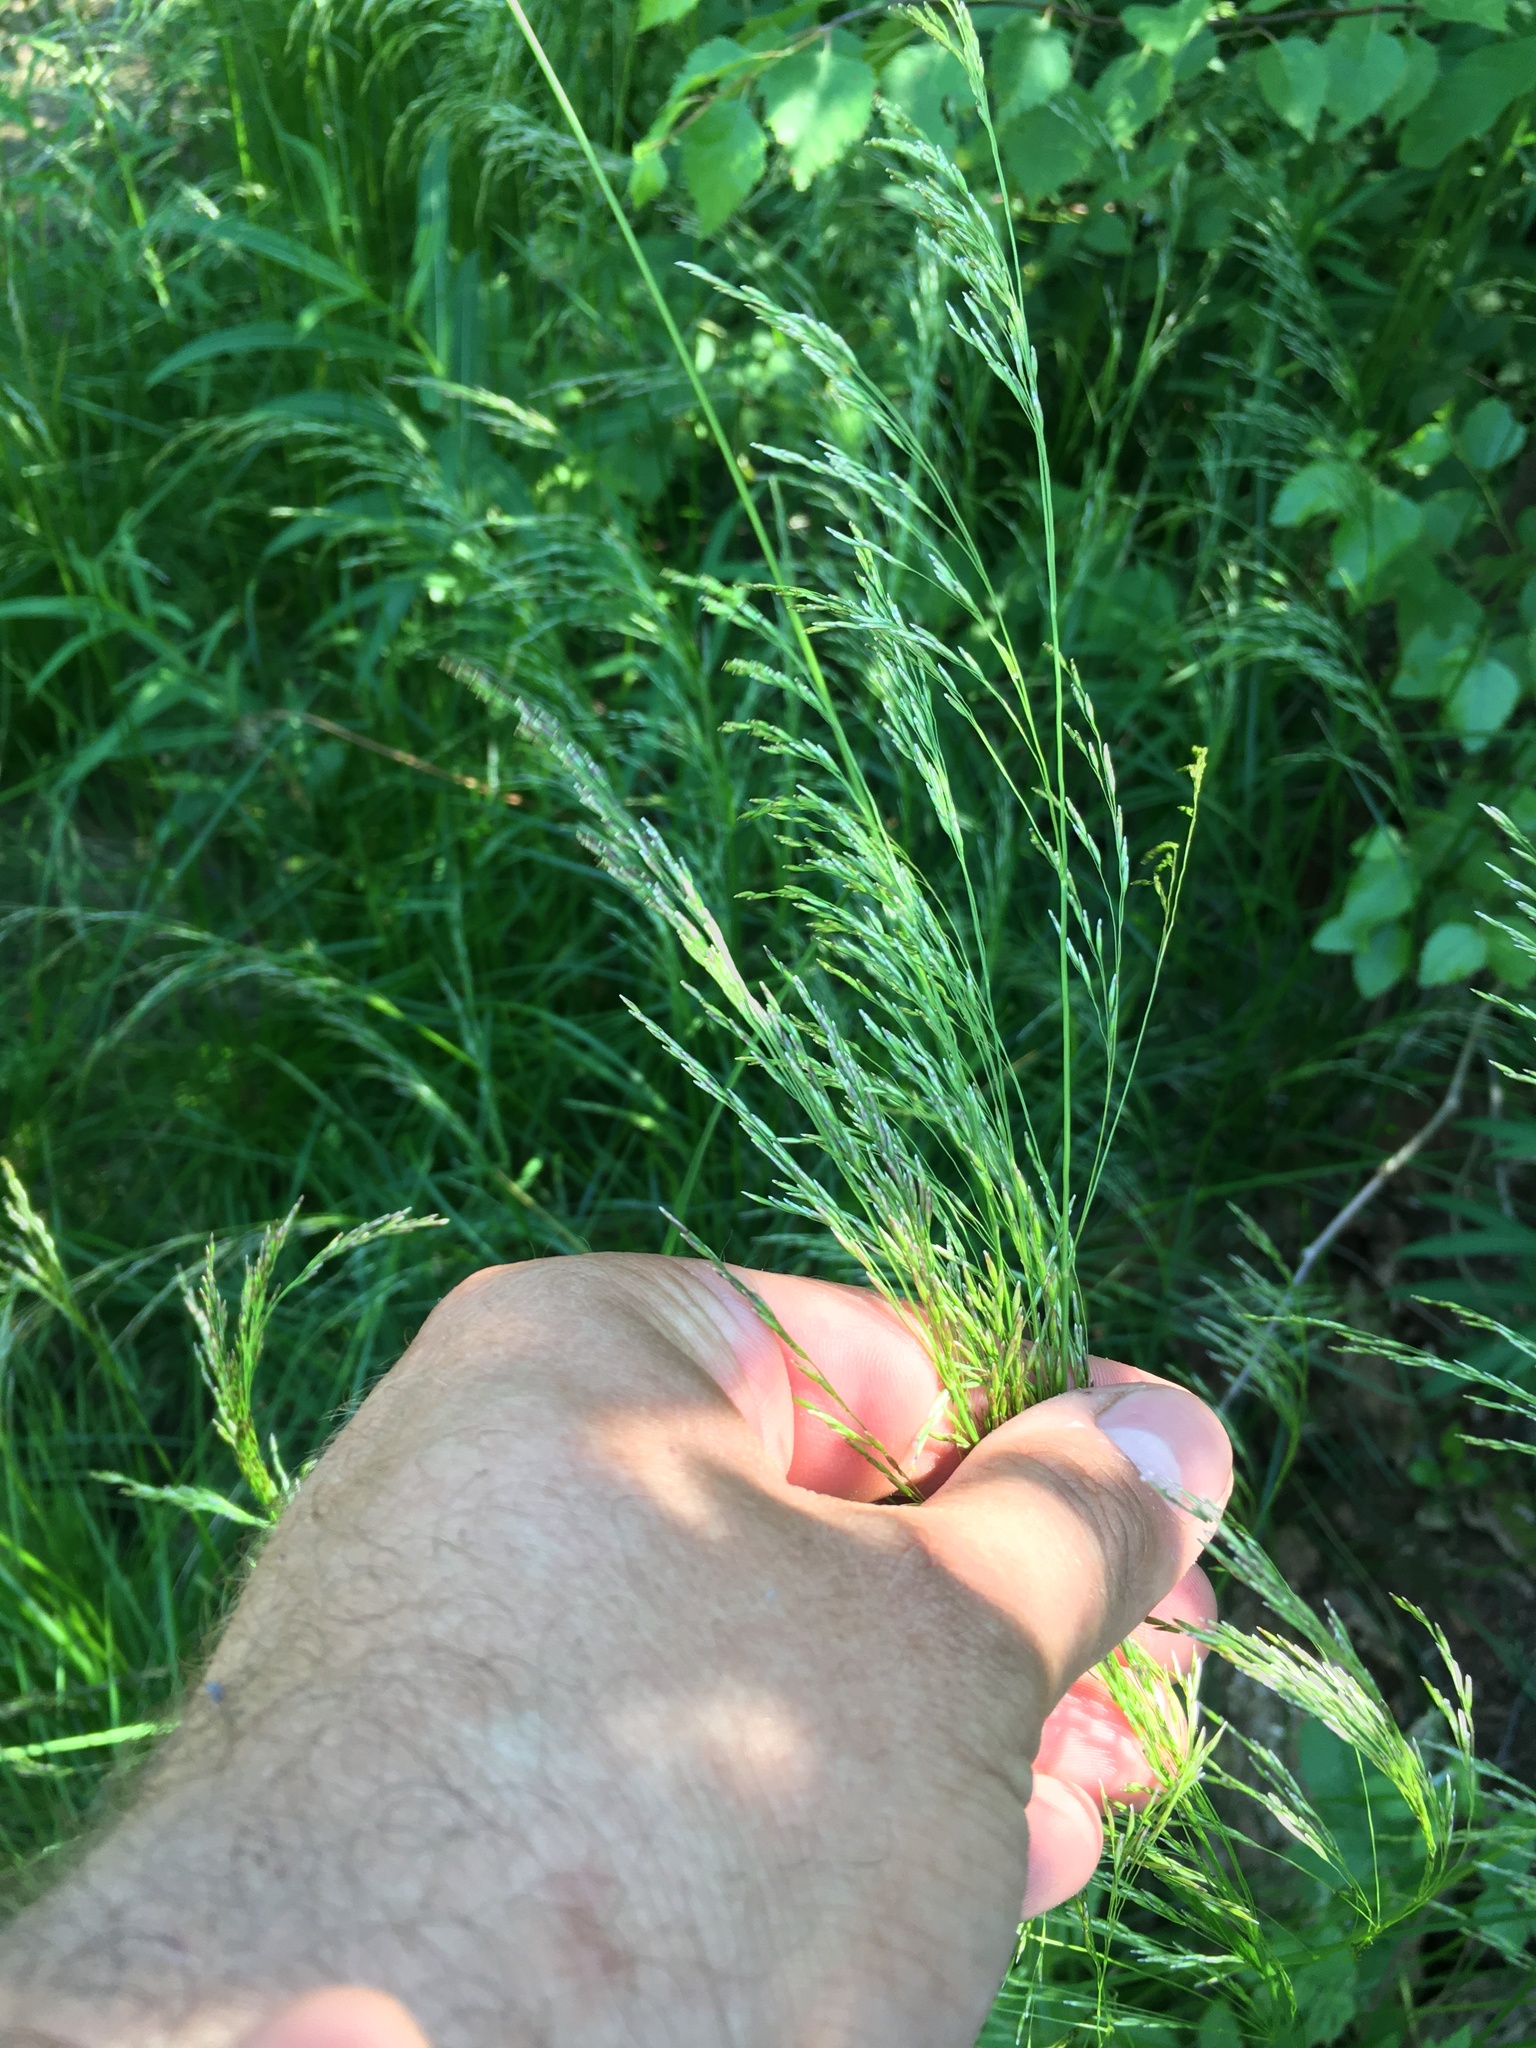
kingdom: Plantae
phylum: Tracheophyta
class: Liliopsida
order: Poales
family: Poaceae
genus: Deschampsia
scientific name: Deschampsia cespitosa
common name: Tufted hair-grass
